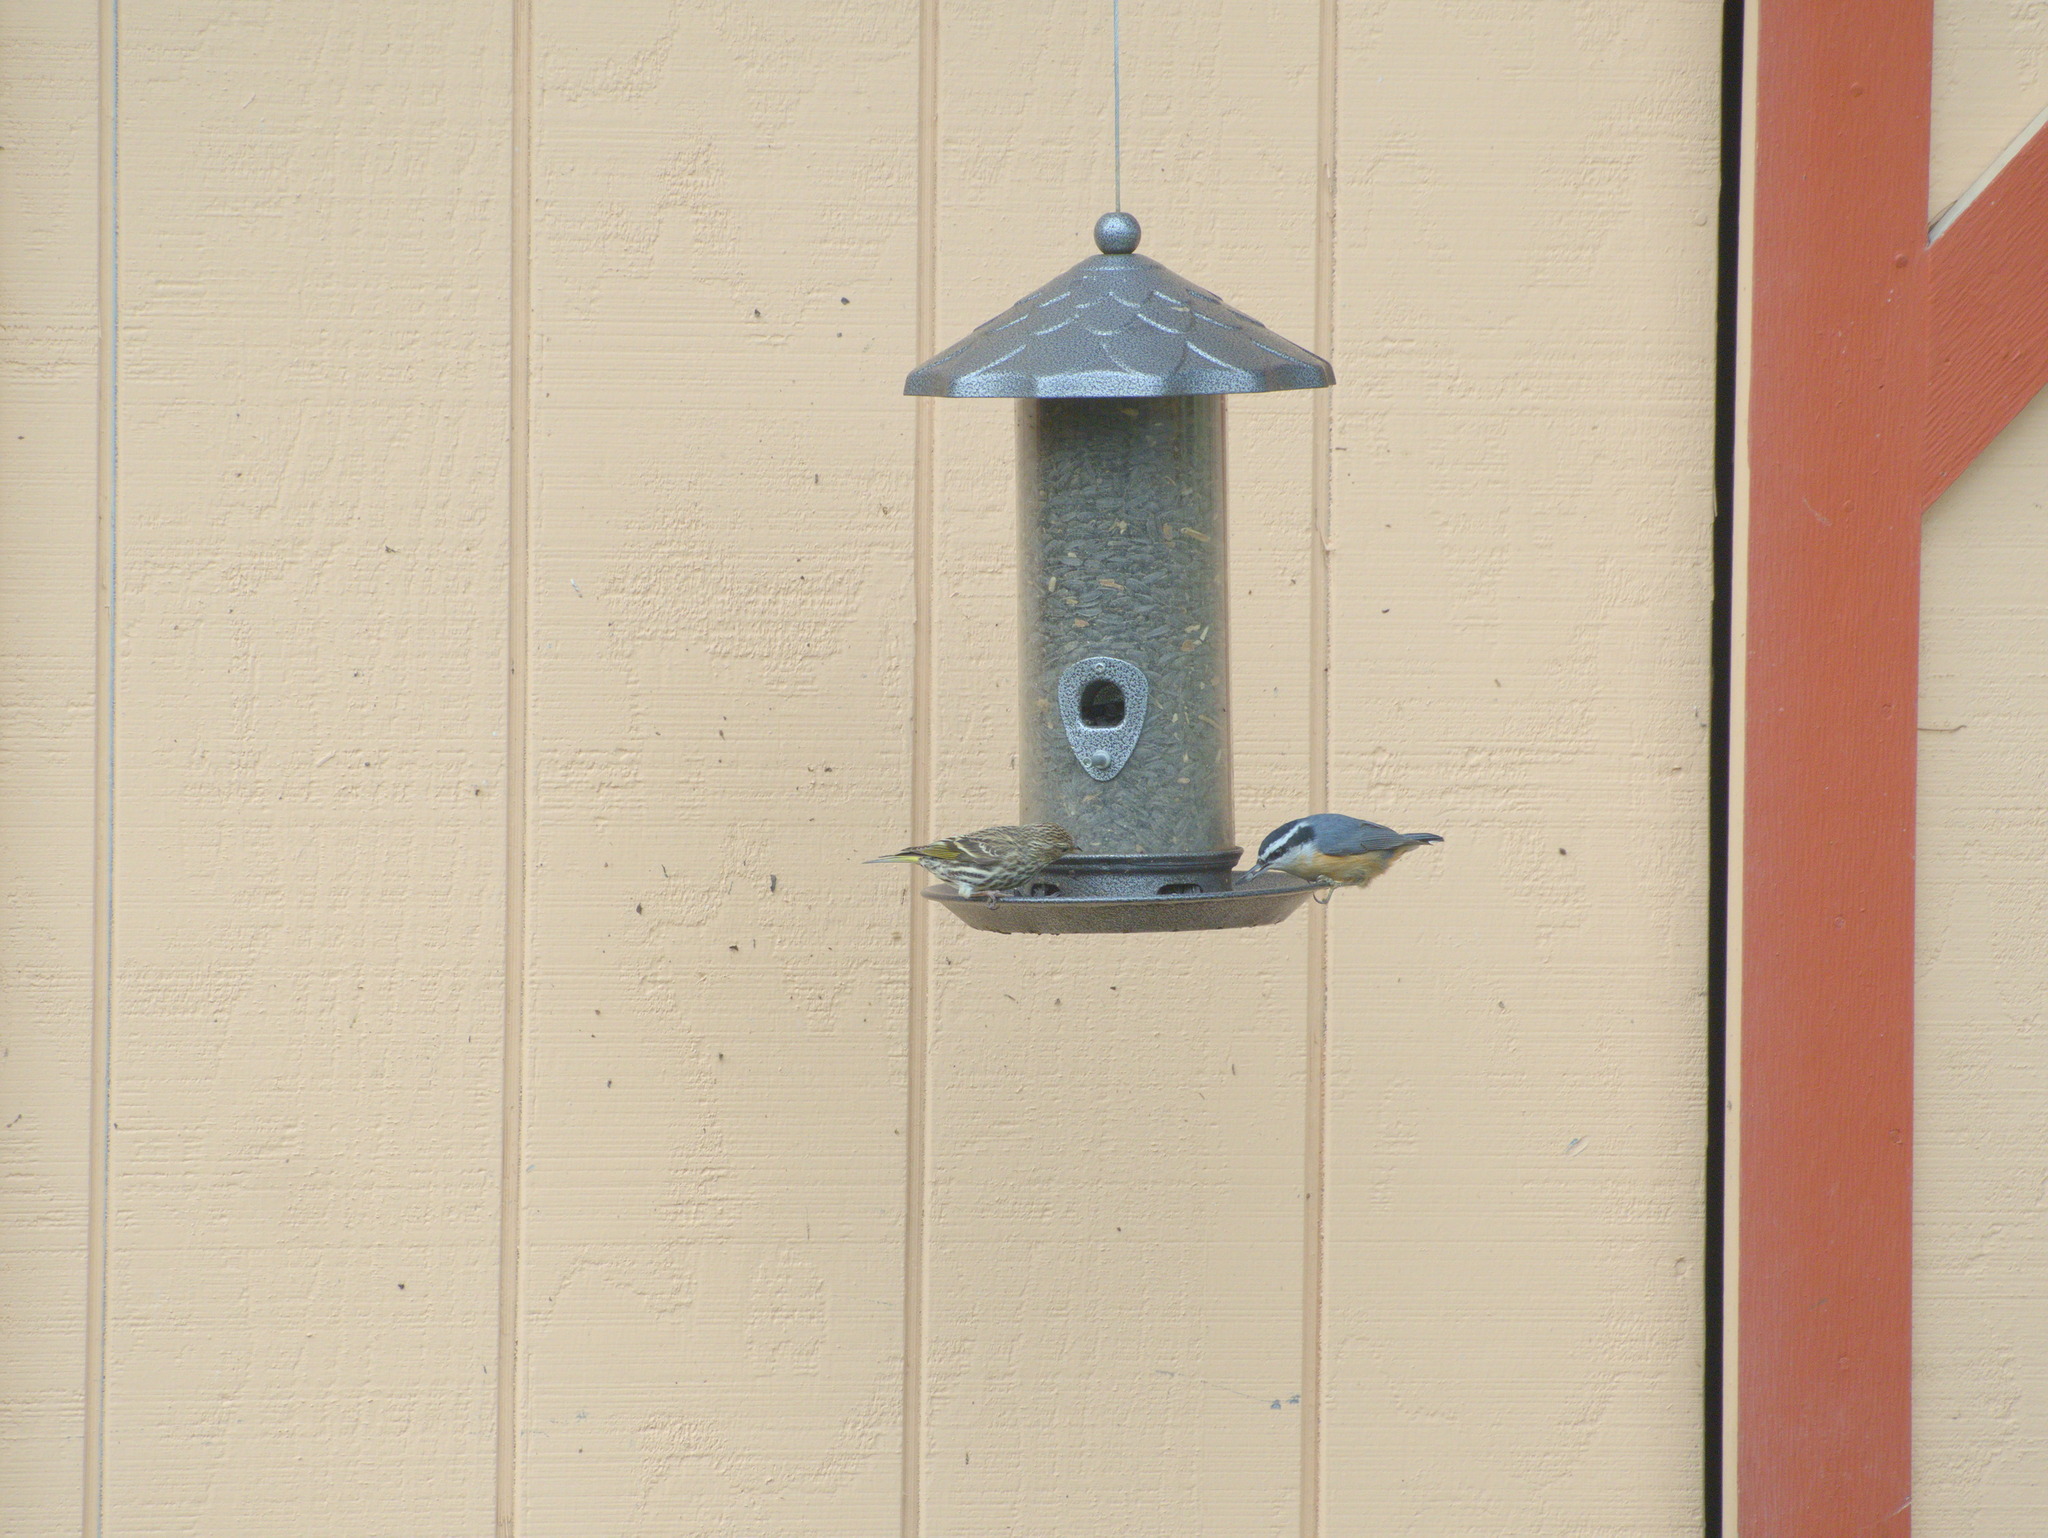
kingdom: Animalia
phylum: Chordata
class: Aves
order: Passeriformes
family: Sittidae
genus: Sitta
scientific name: Sitta canadensis
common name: Red-breasted nuthatch
